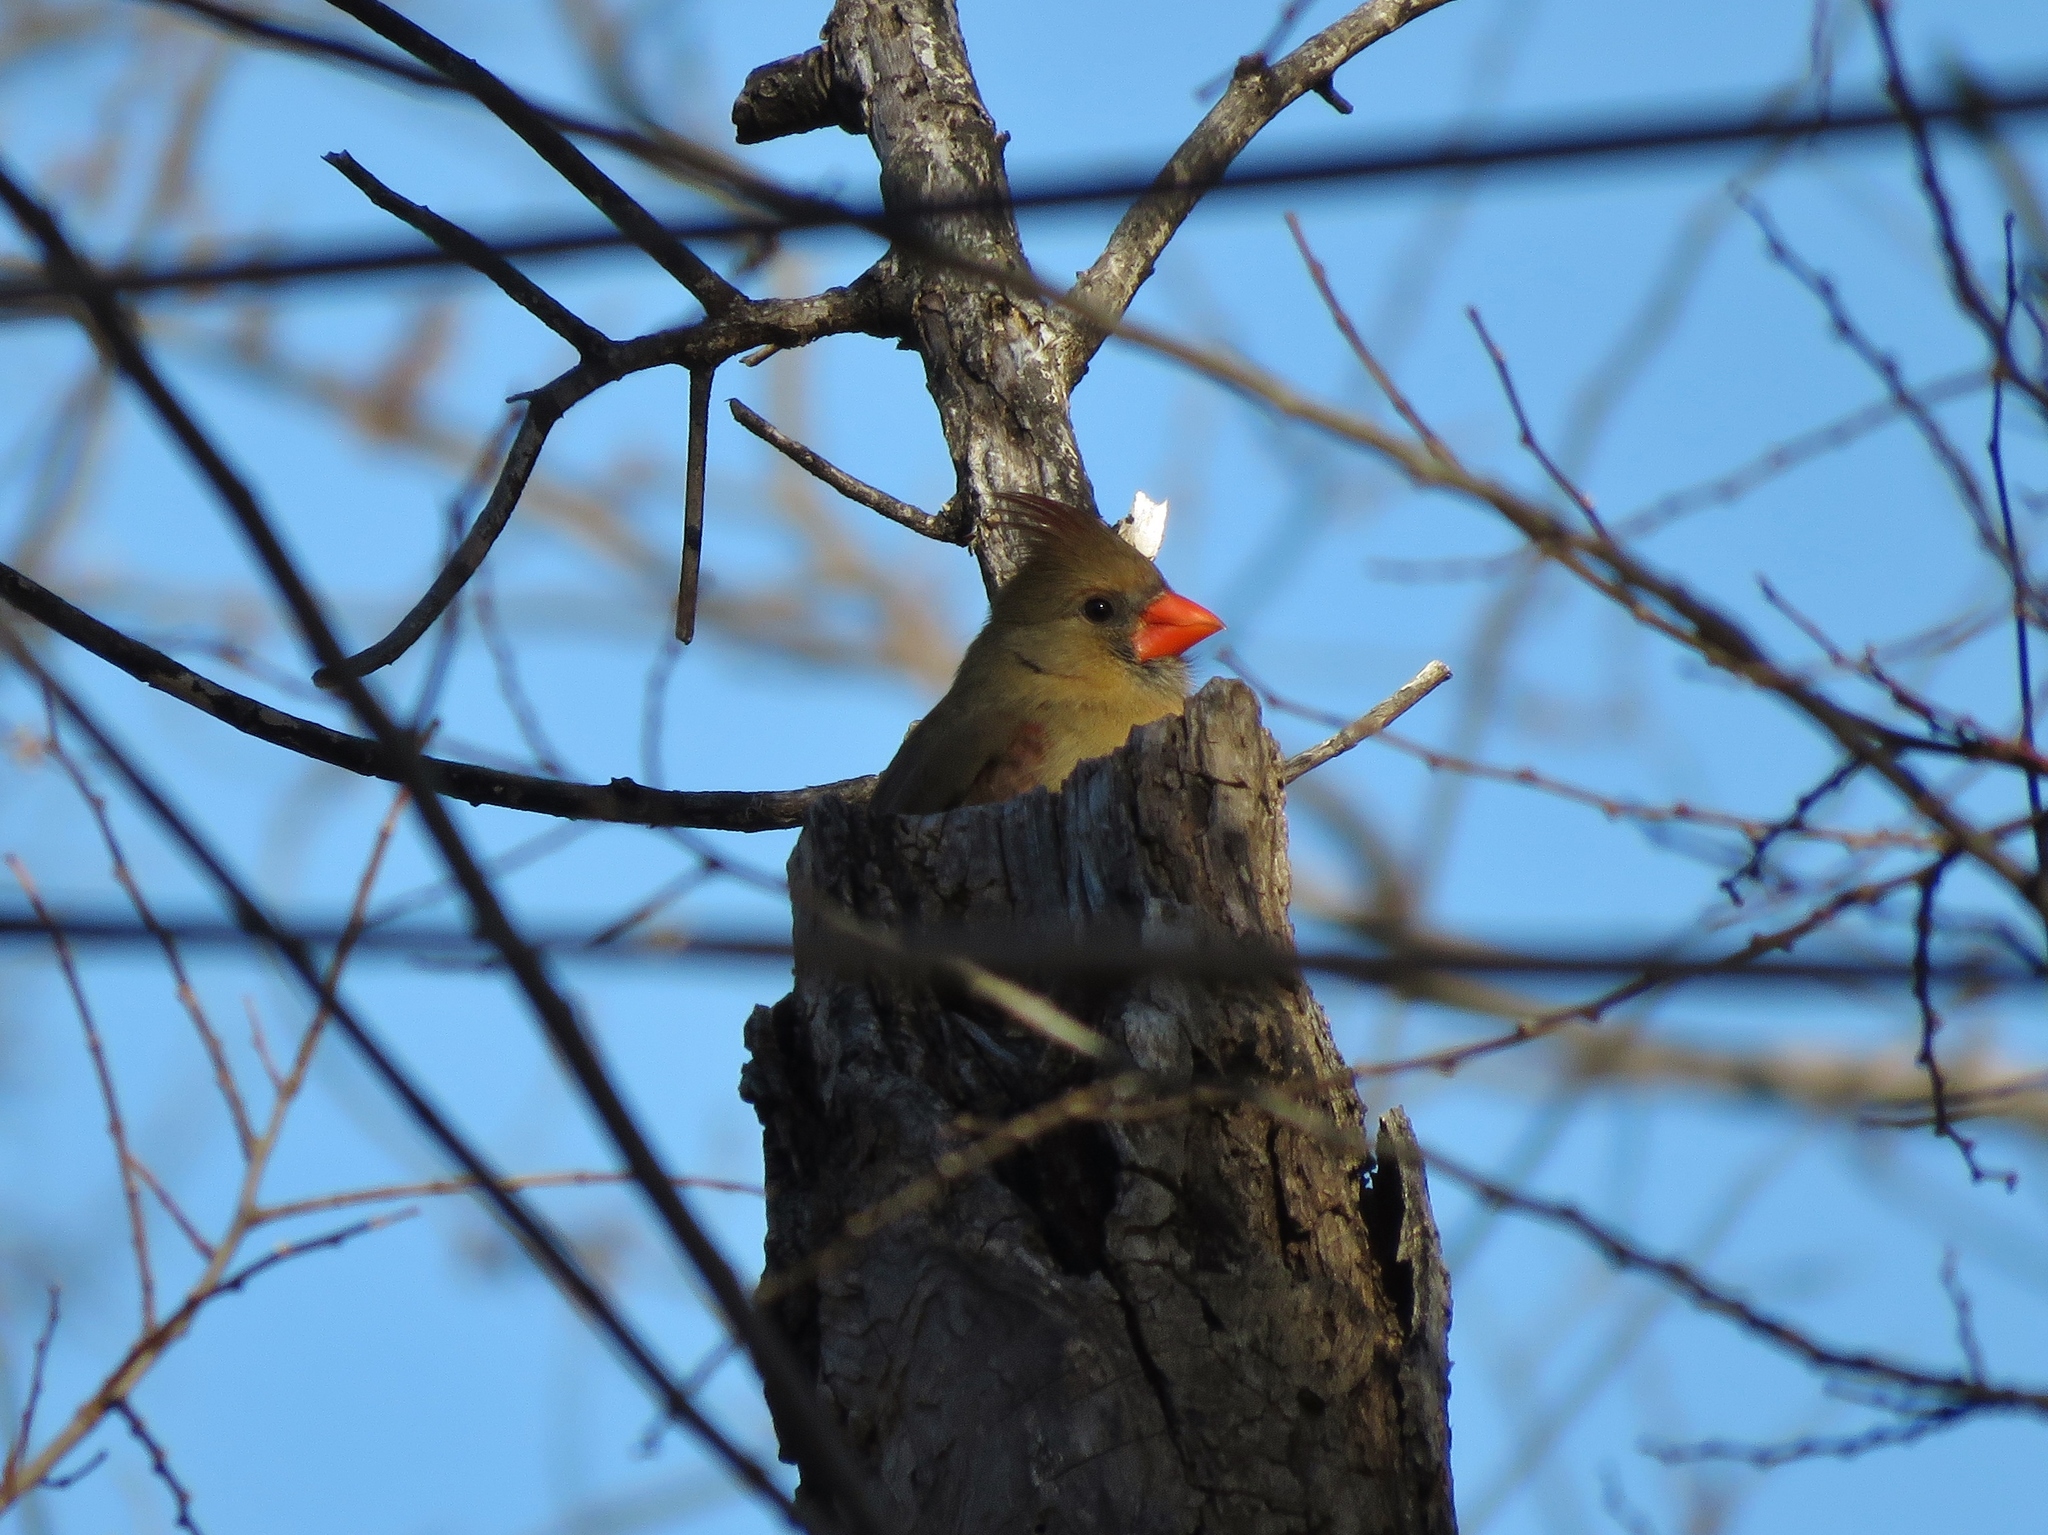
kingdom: Animalia
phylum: Chordata
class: Aves
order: Passeriformes
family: Cardinalidae
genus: Cardinalis
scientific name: Cardinalis cardinalis
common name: Northern cardinal
